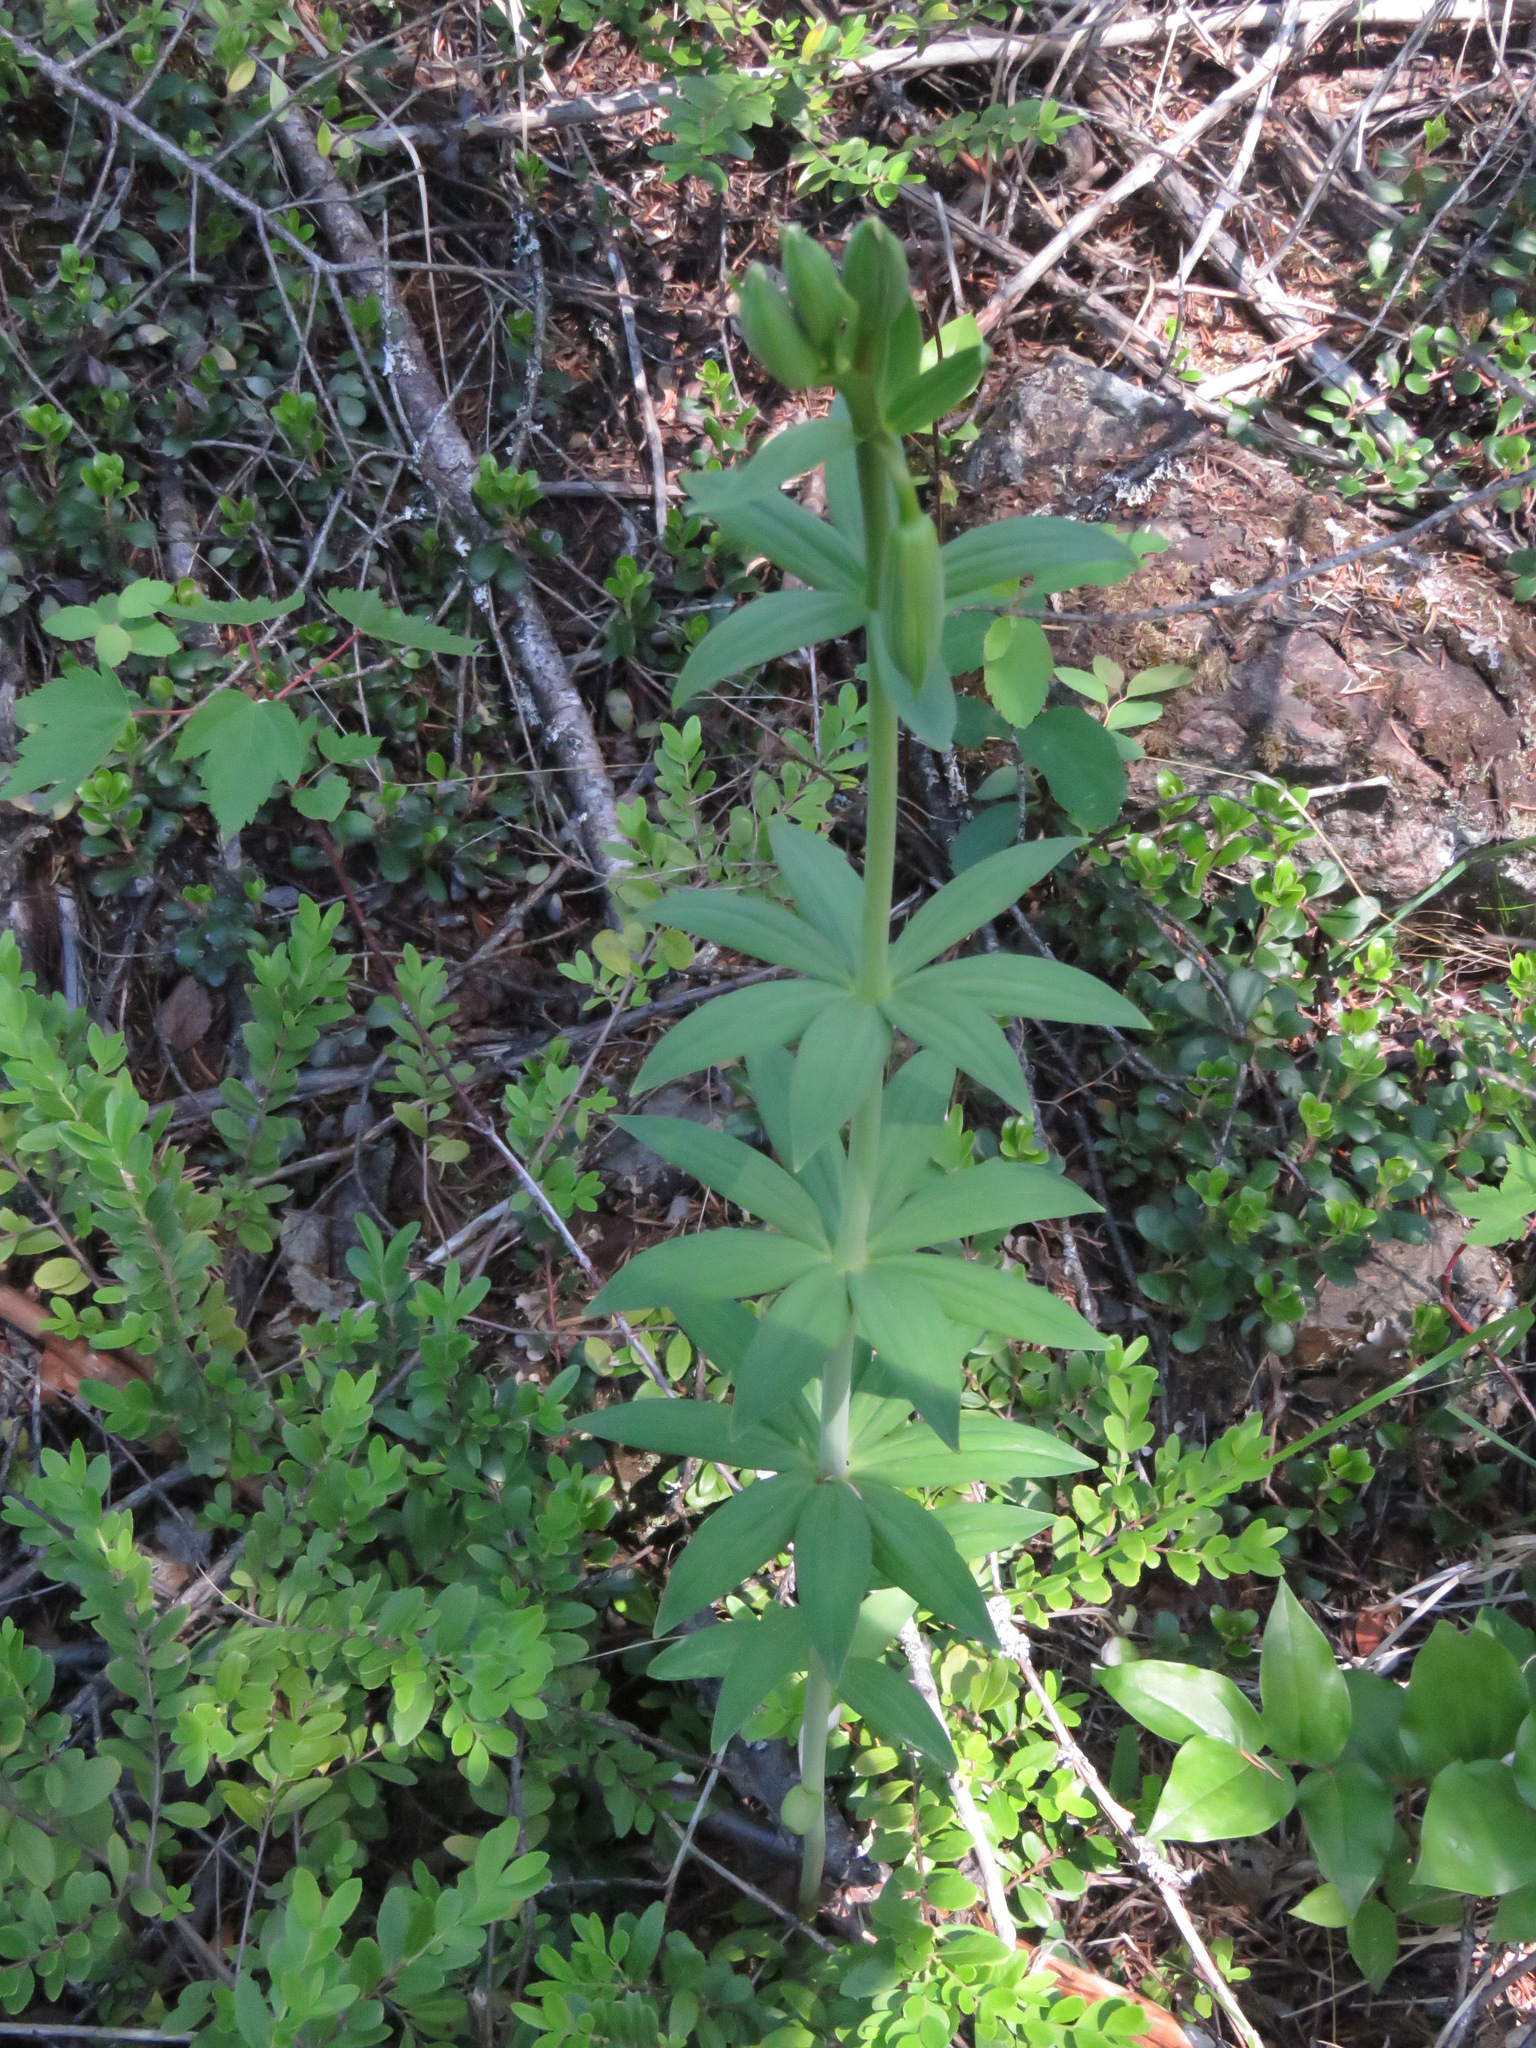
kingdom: Plantae
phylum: Tracheophyta
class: Liliopsida
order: Liliales
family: Liliaceae
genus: Lilium
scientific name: Lilium columbianum
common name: Columbia lily
